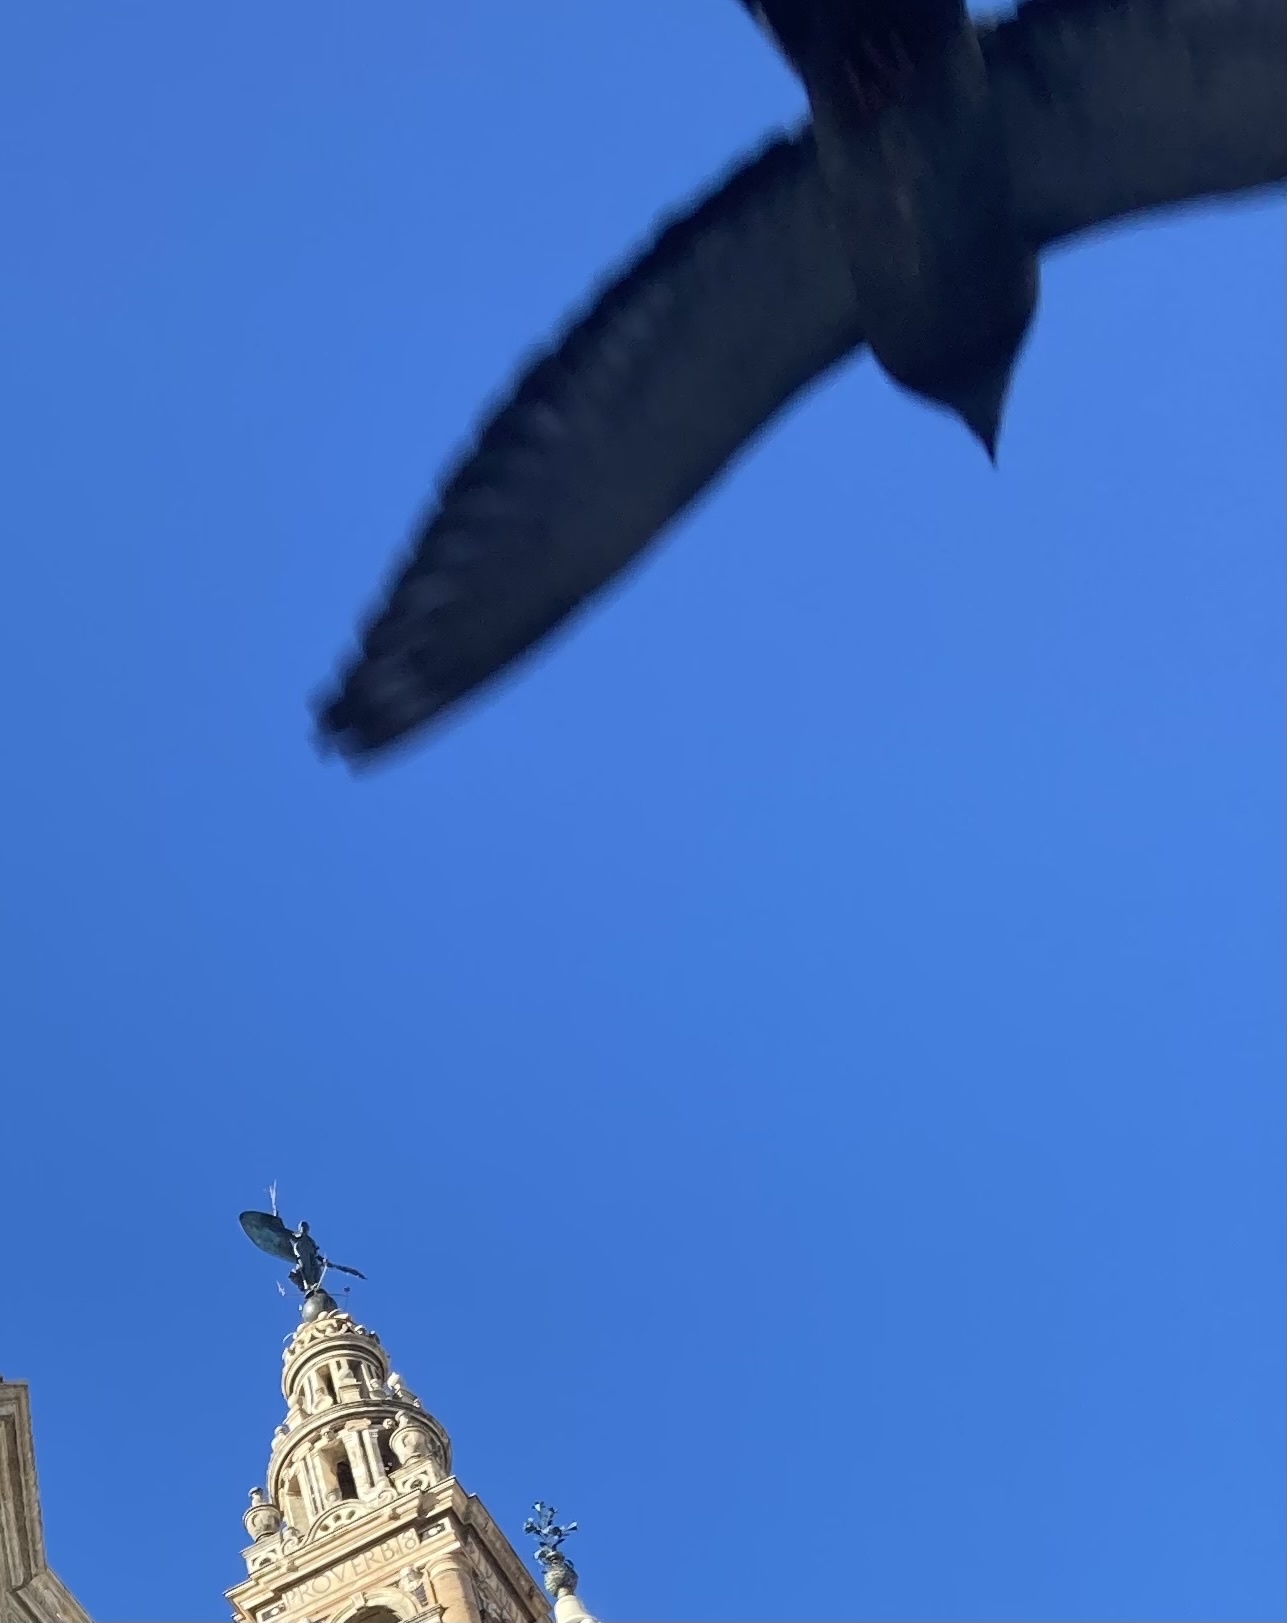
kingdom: Animalia
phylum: Chordata
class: Aves
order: Columbiformes
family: Columbidae
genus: Columba
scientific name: Columba livia
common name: Rock pigeon
